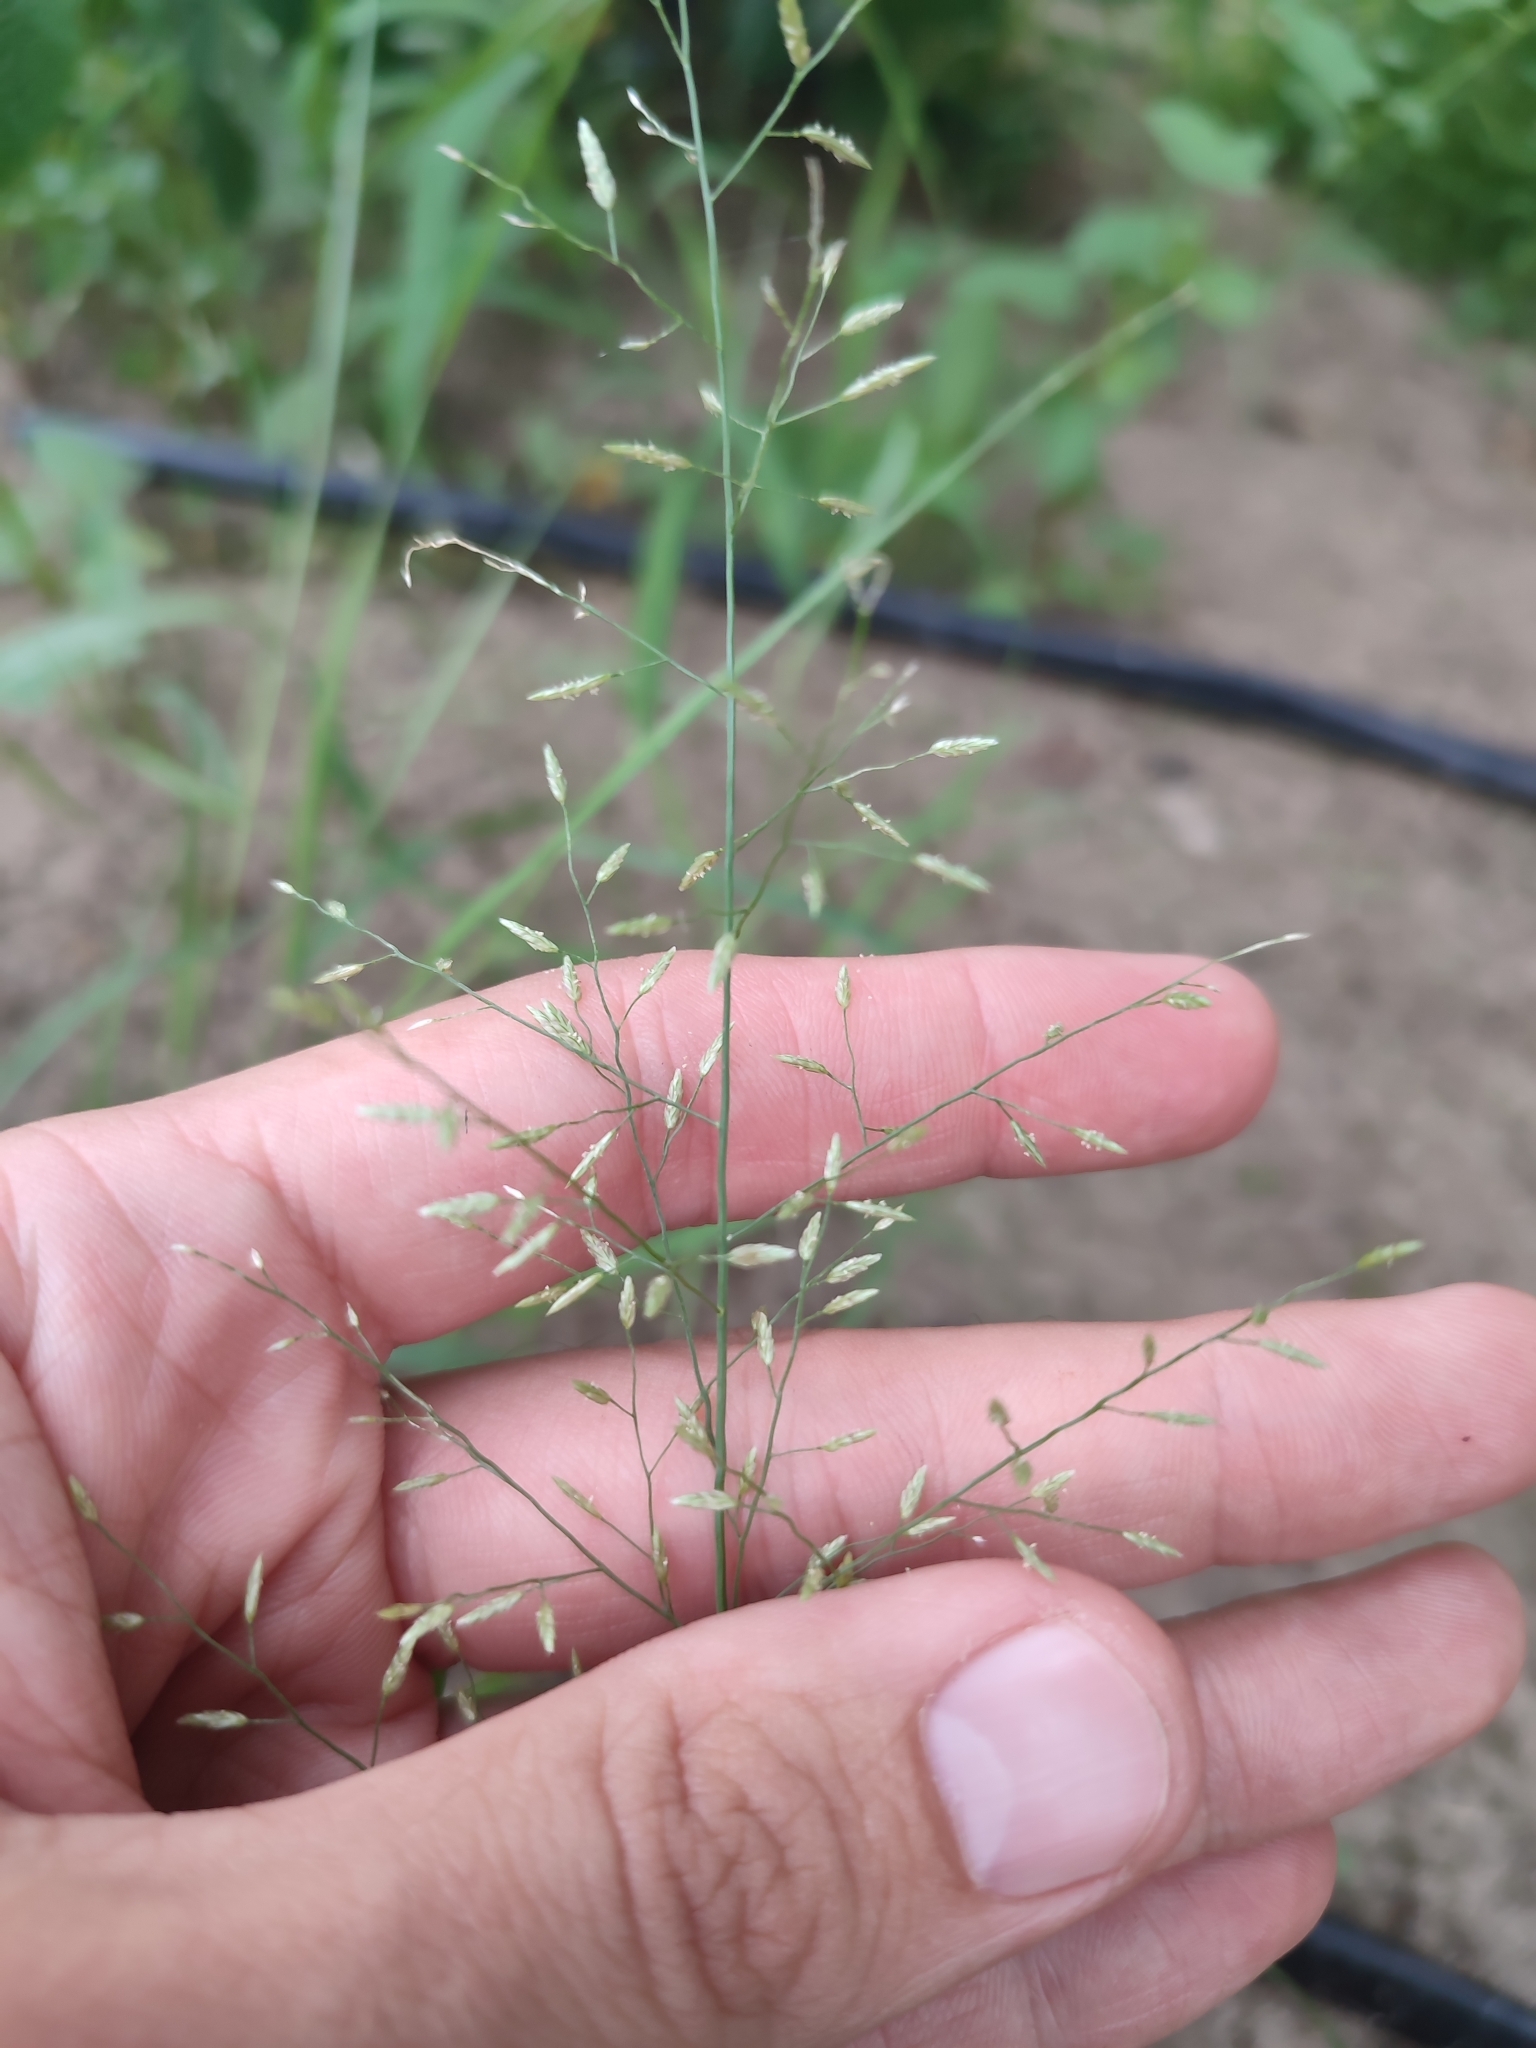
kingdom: Plantae
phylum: Tracheophyta
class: Liliopsida
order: Poales
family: Poaceae
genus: Eragrostis
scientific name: Eragrostis minor
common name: Small love-grass
